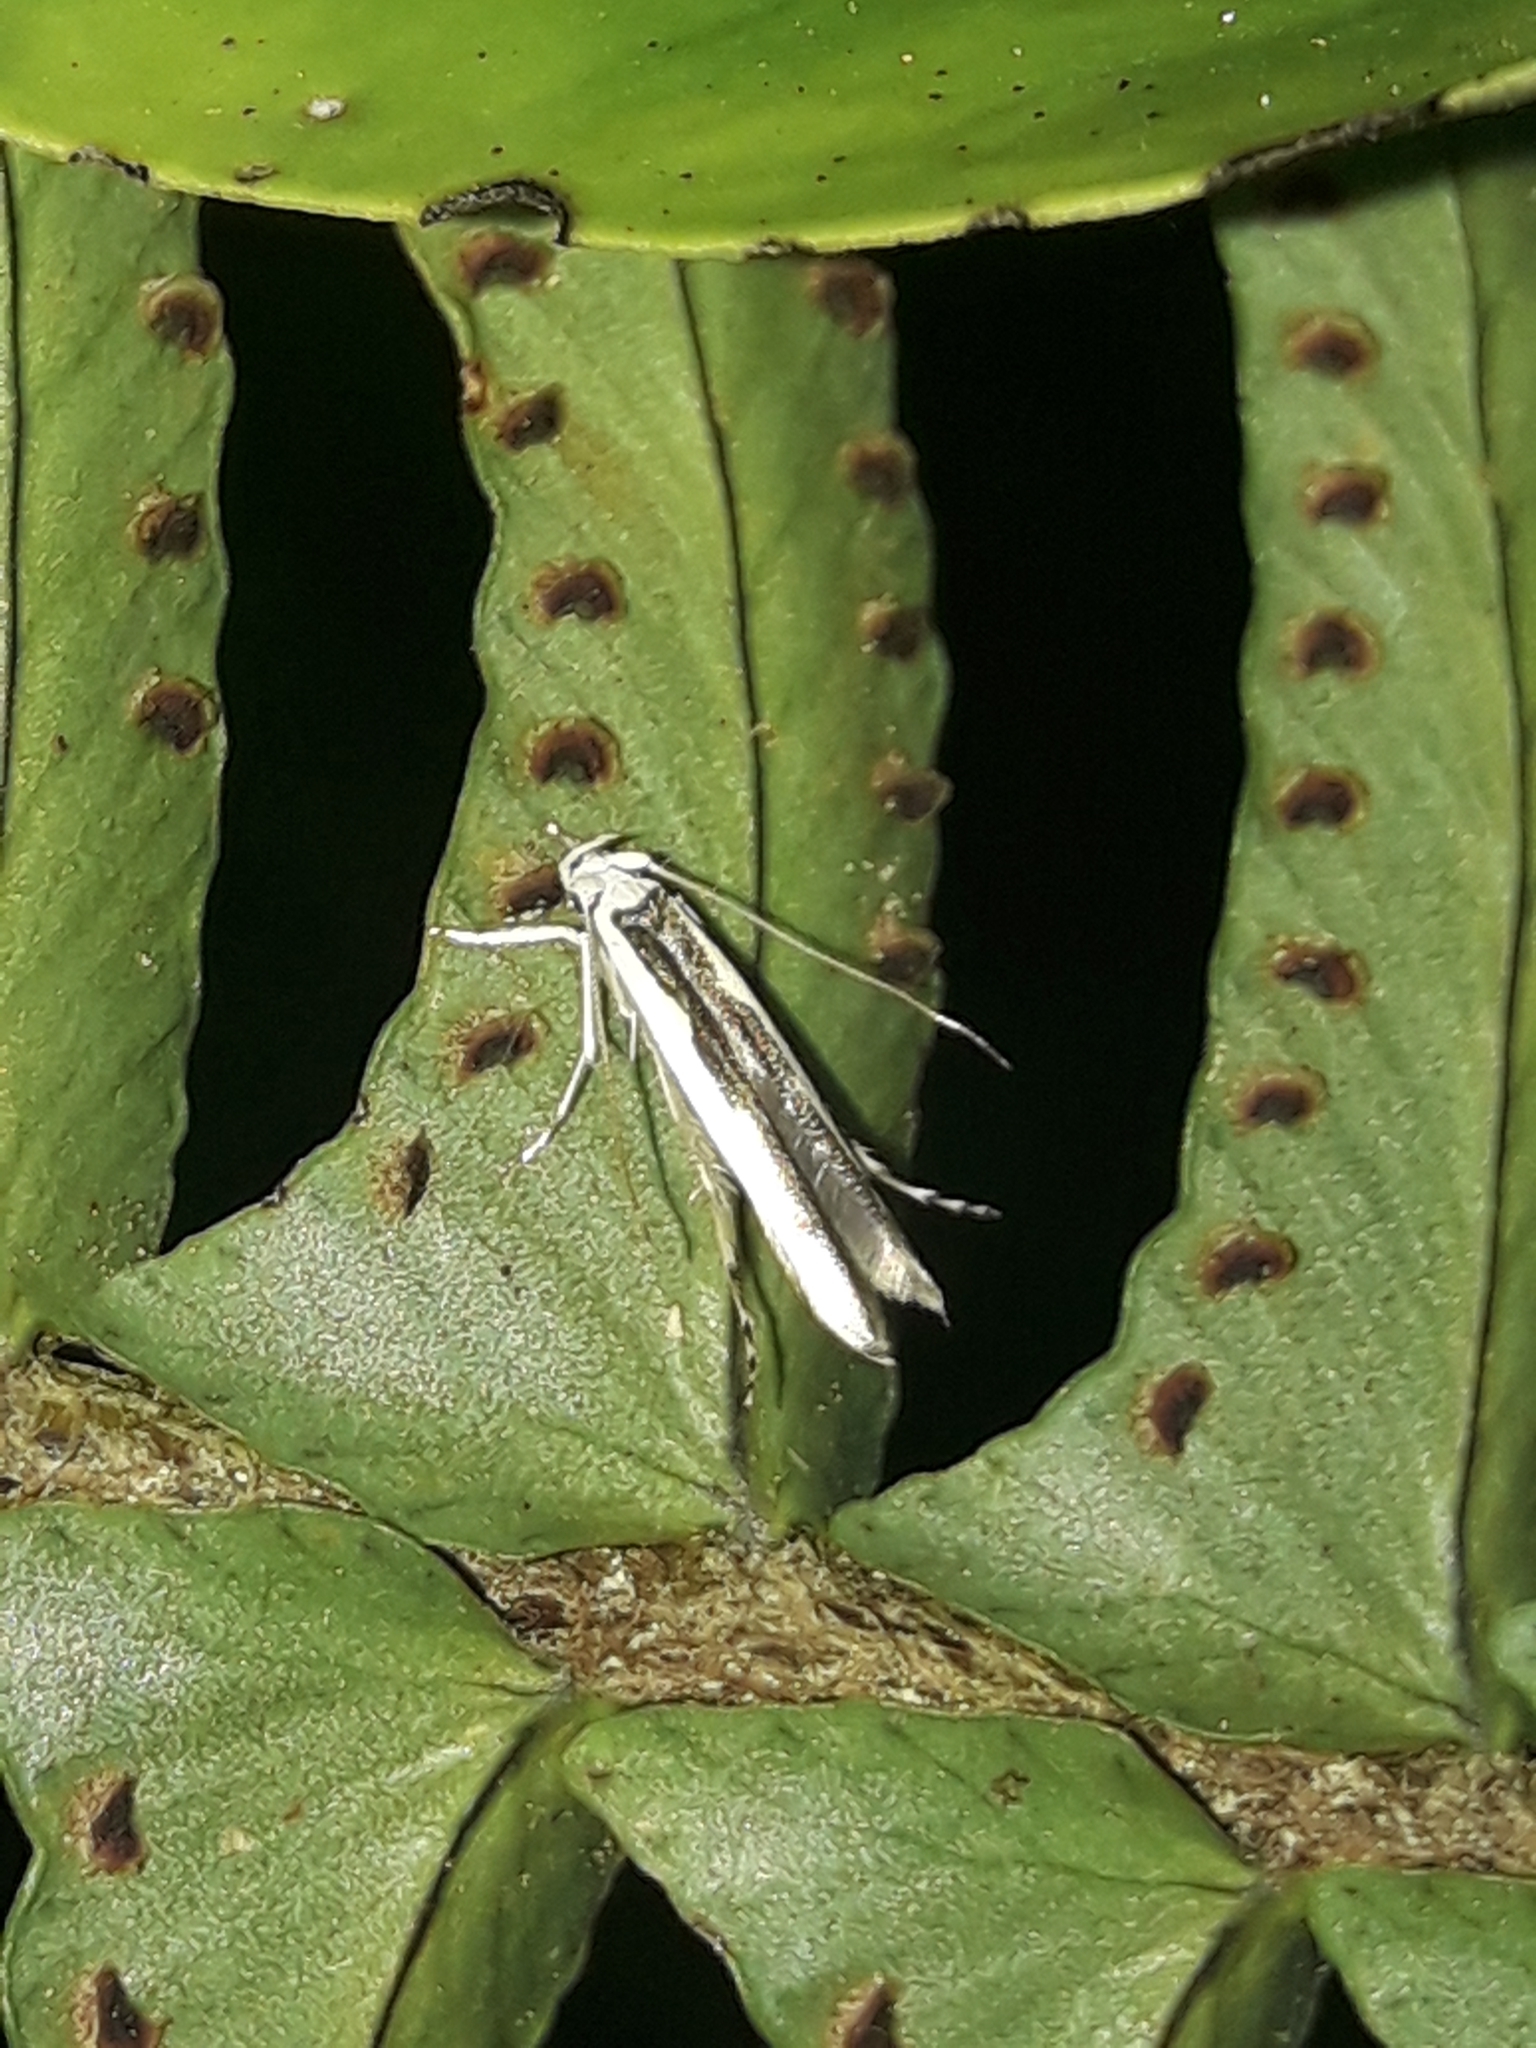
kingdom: Animalia
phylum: Arthropoda
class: Insecta
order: Lepidoptera
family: Roeslerstammiidae
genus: Vanicela
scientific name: Vanicela disjunctella
